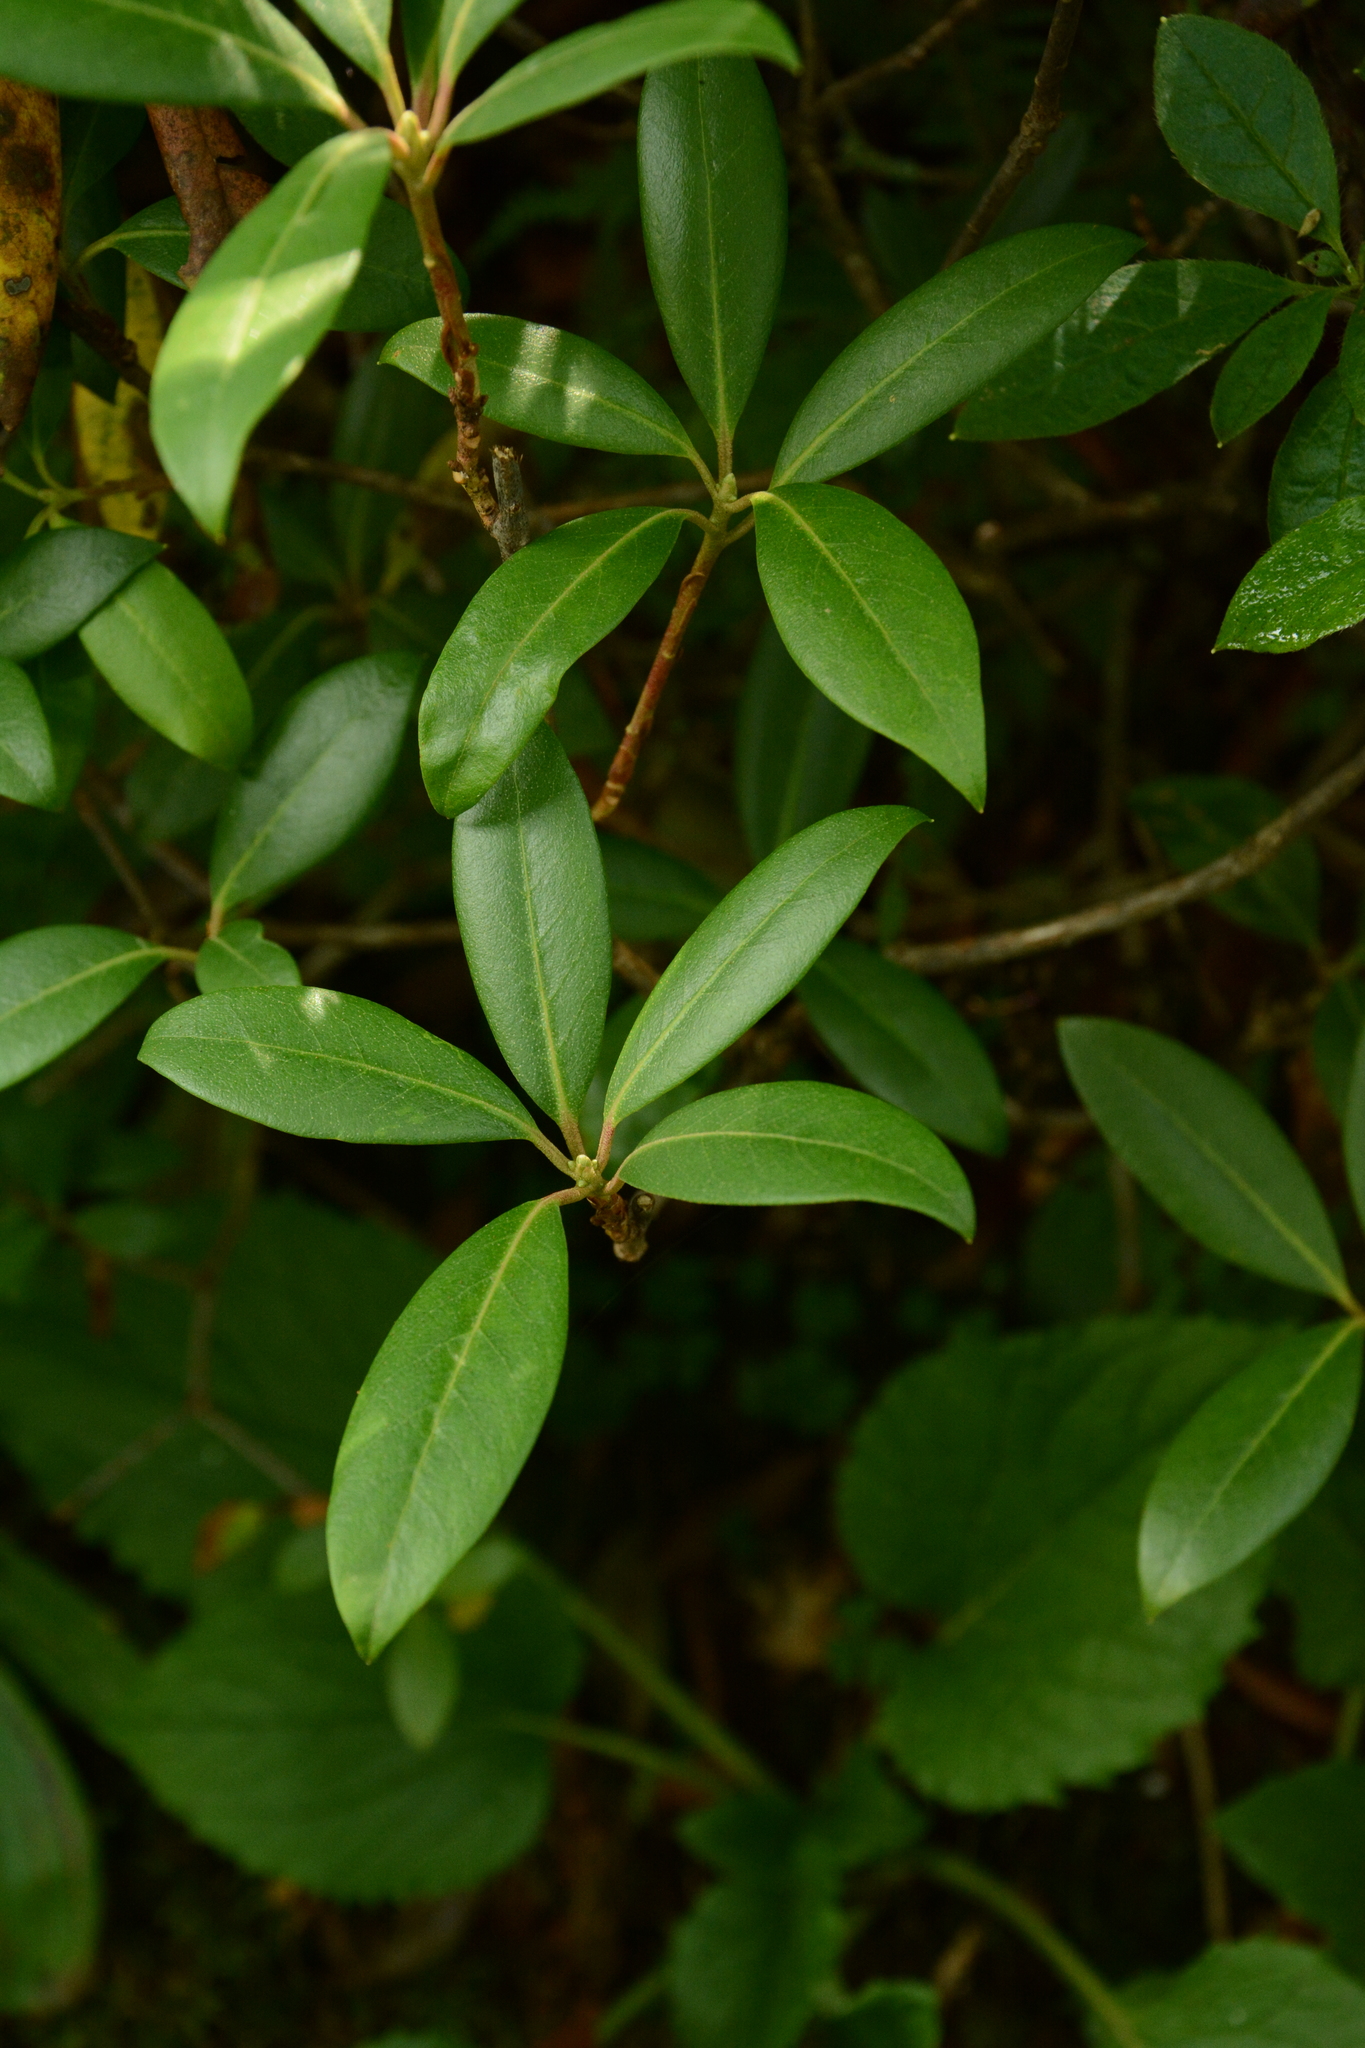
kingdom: Plantae
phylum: Tracheophyta
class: Magnoliopsida
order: Ericales
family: Ericaceae
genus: Rhododendron
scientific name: Rhododendron smokianum
